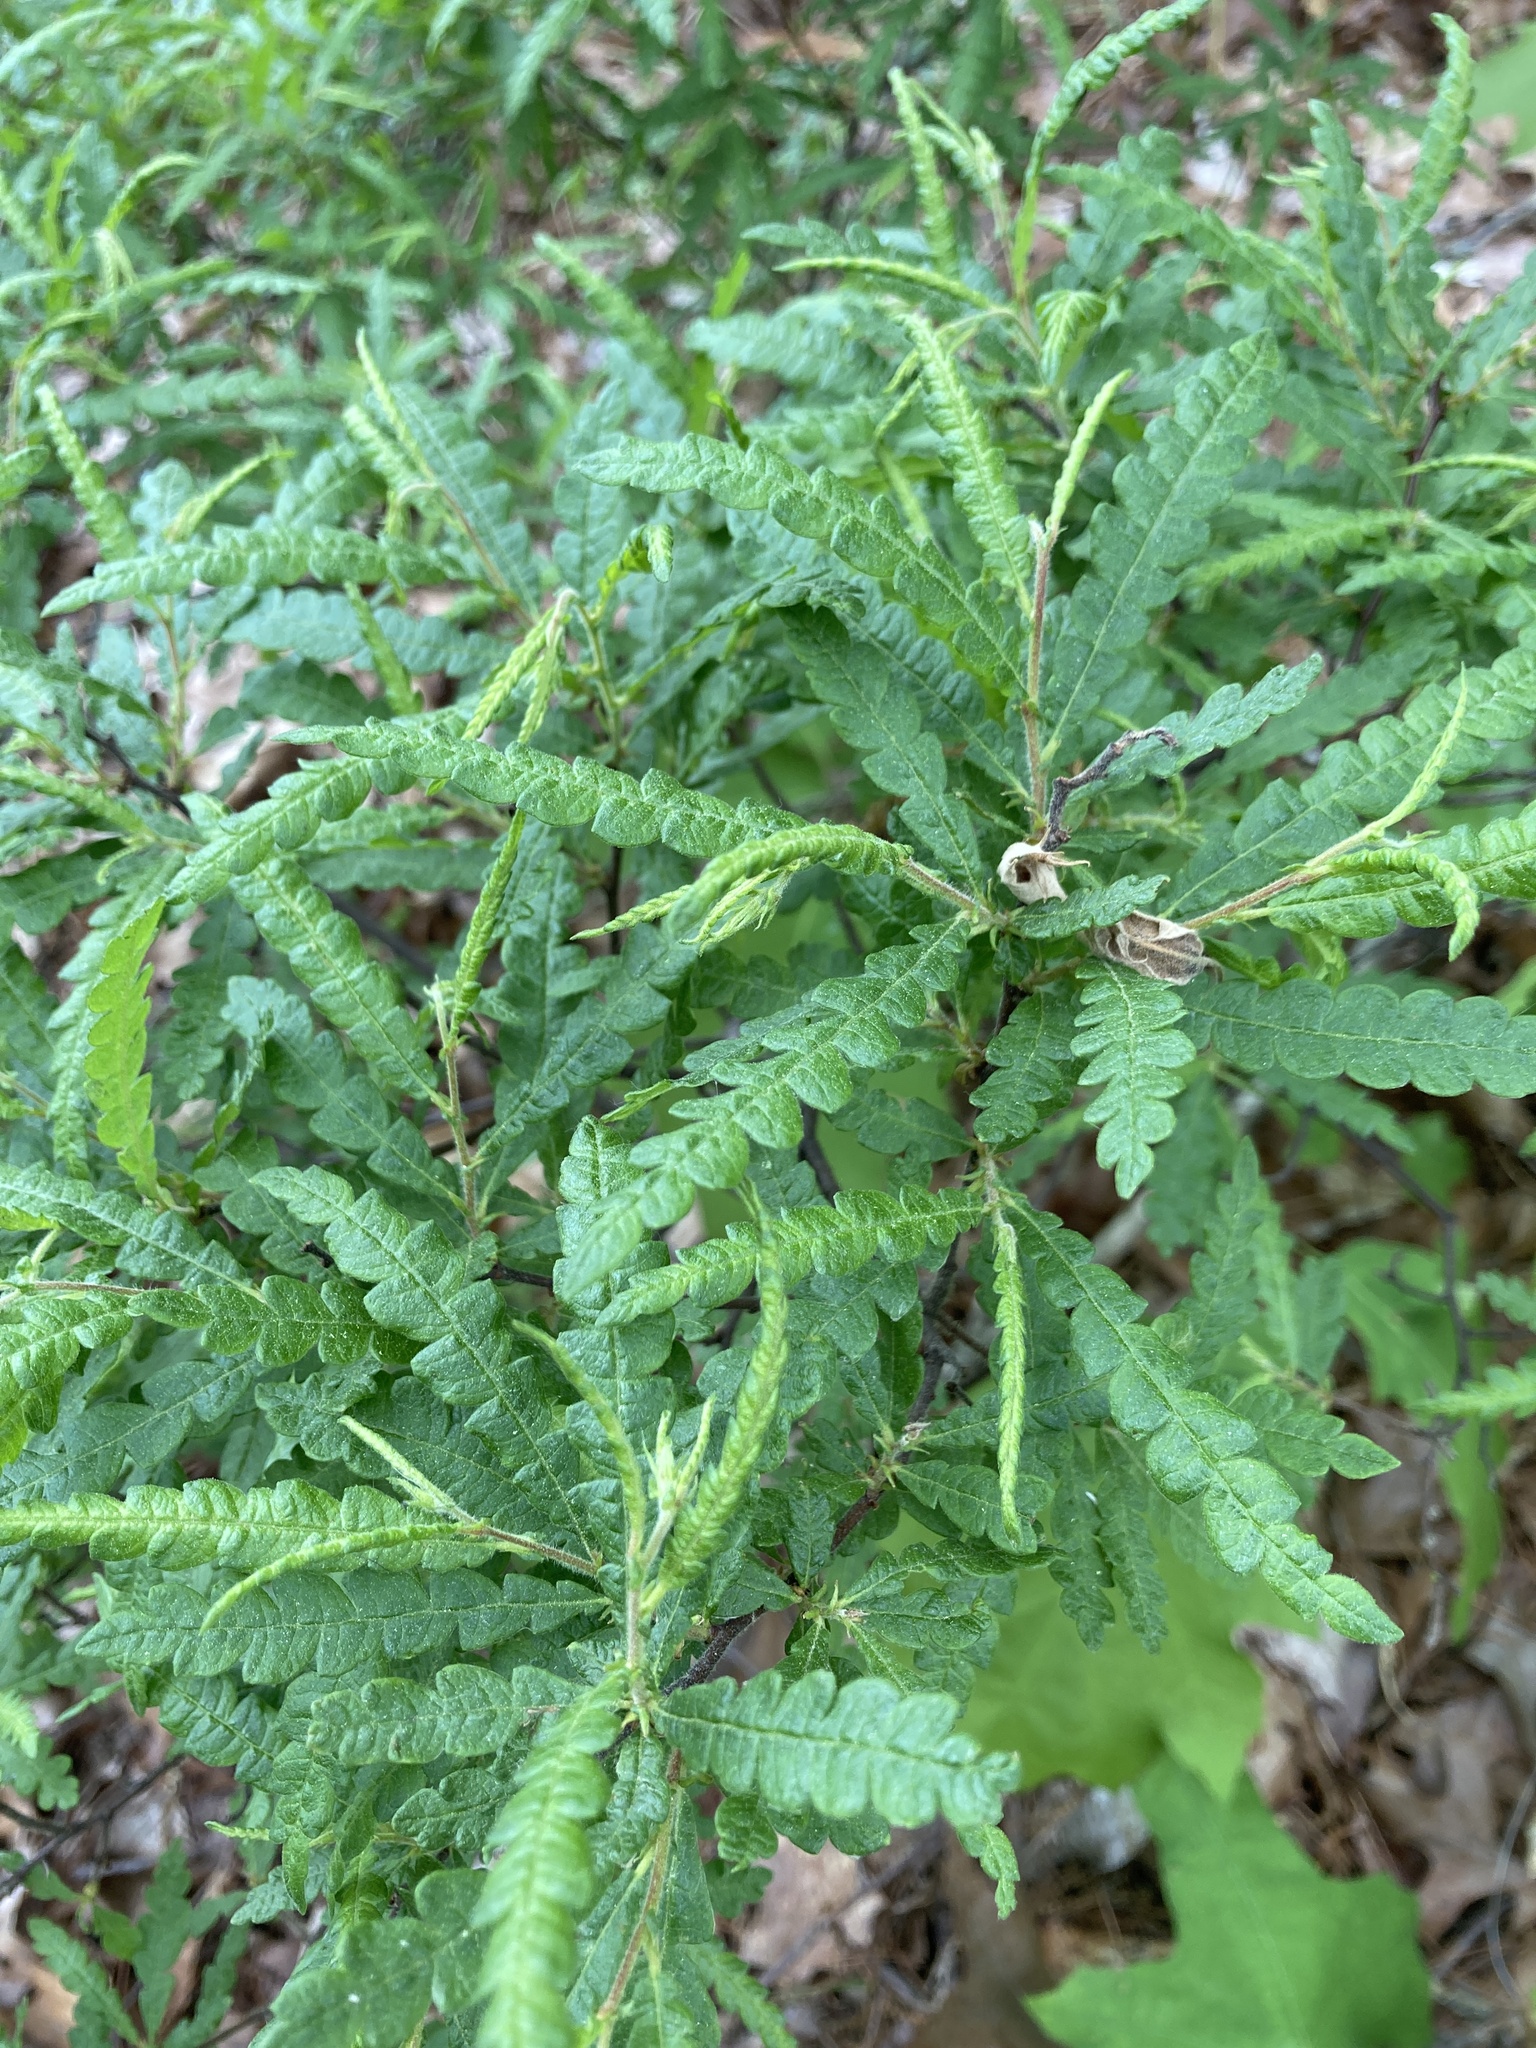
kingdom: Plantae
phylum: Tracheophyta
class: Magnoliopsida
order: Fagales
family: Myricaceae
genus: Comptonia
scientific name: Comptonia peregrina
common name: Sweet-fern
